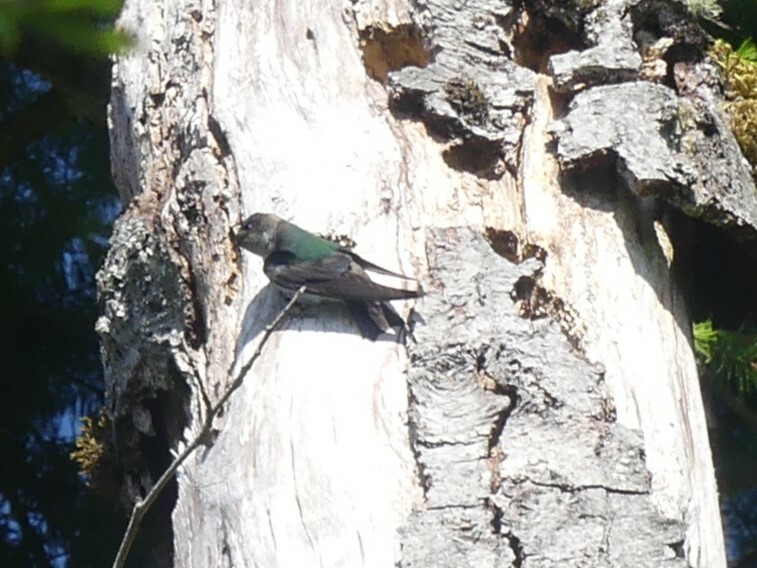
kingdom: Animalia
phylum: Chordata
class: Aves
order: Passeriformes
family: Hirundinidae
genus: Tachycineta
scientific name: Tachycineta thalassina
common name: Violet-green swallow
